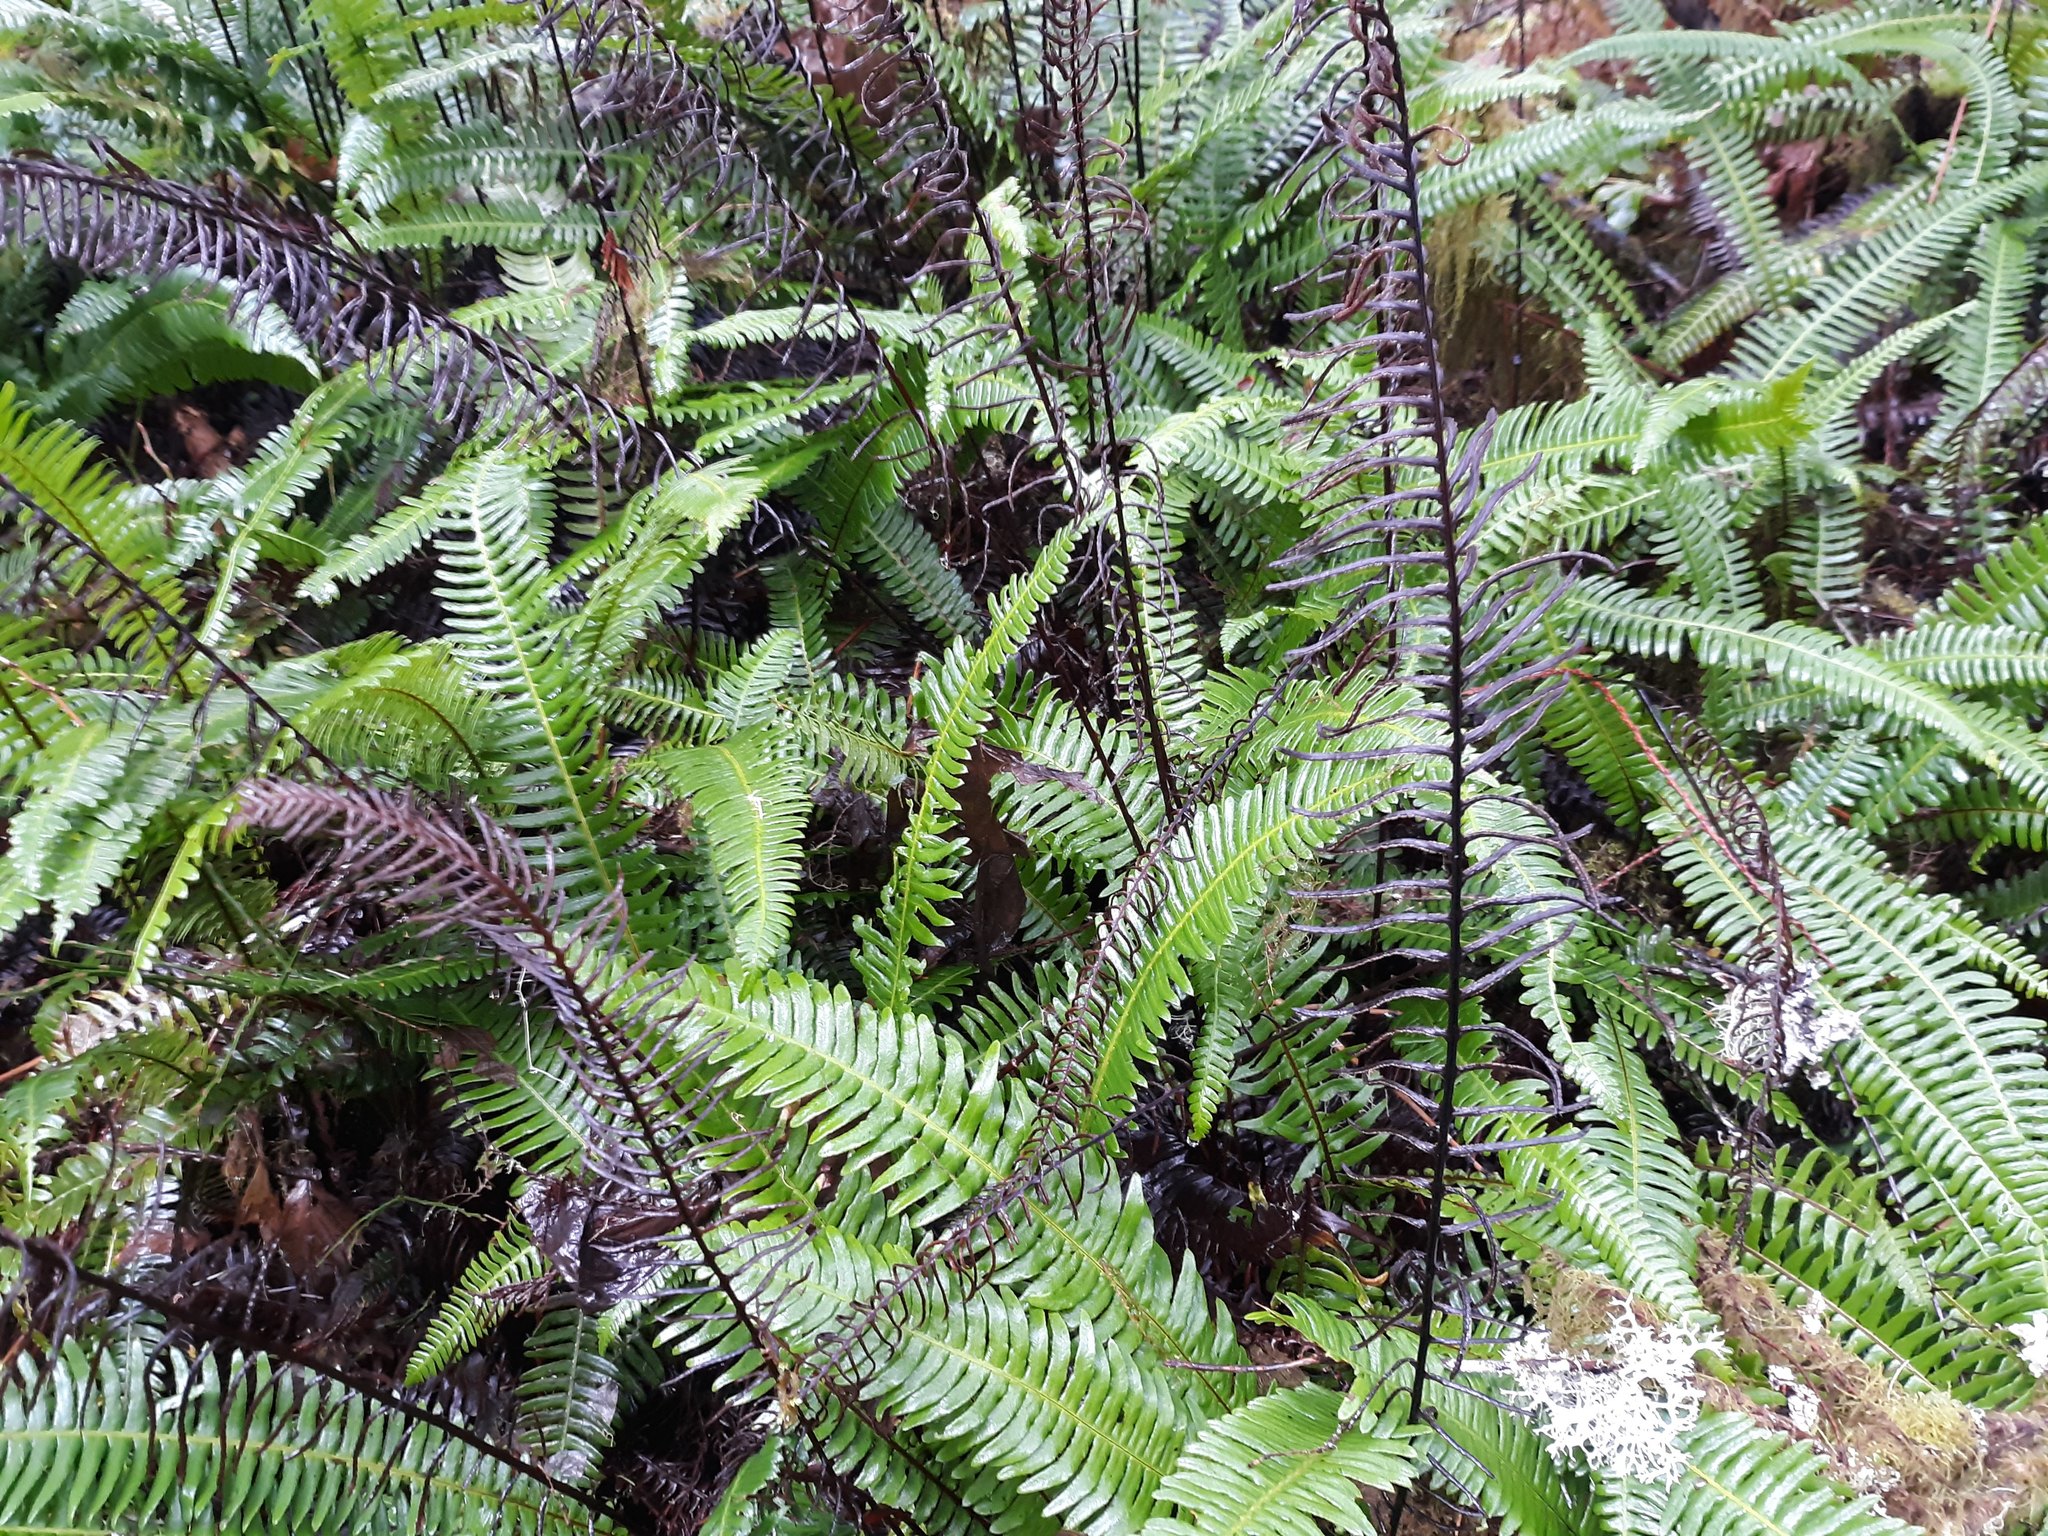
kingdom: Plantae
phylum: Tracheophyta
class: Polypodiopsida
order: Polypodiales
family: Blechnaceae
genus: Struthiopteris
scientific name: Struthiopteris spicant
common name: Deer fern
